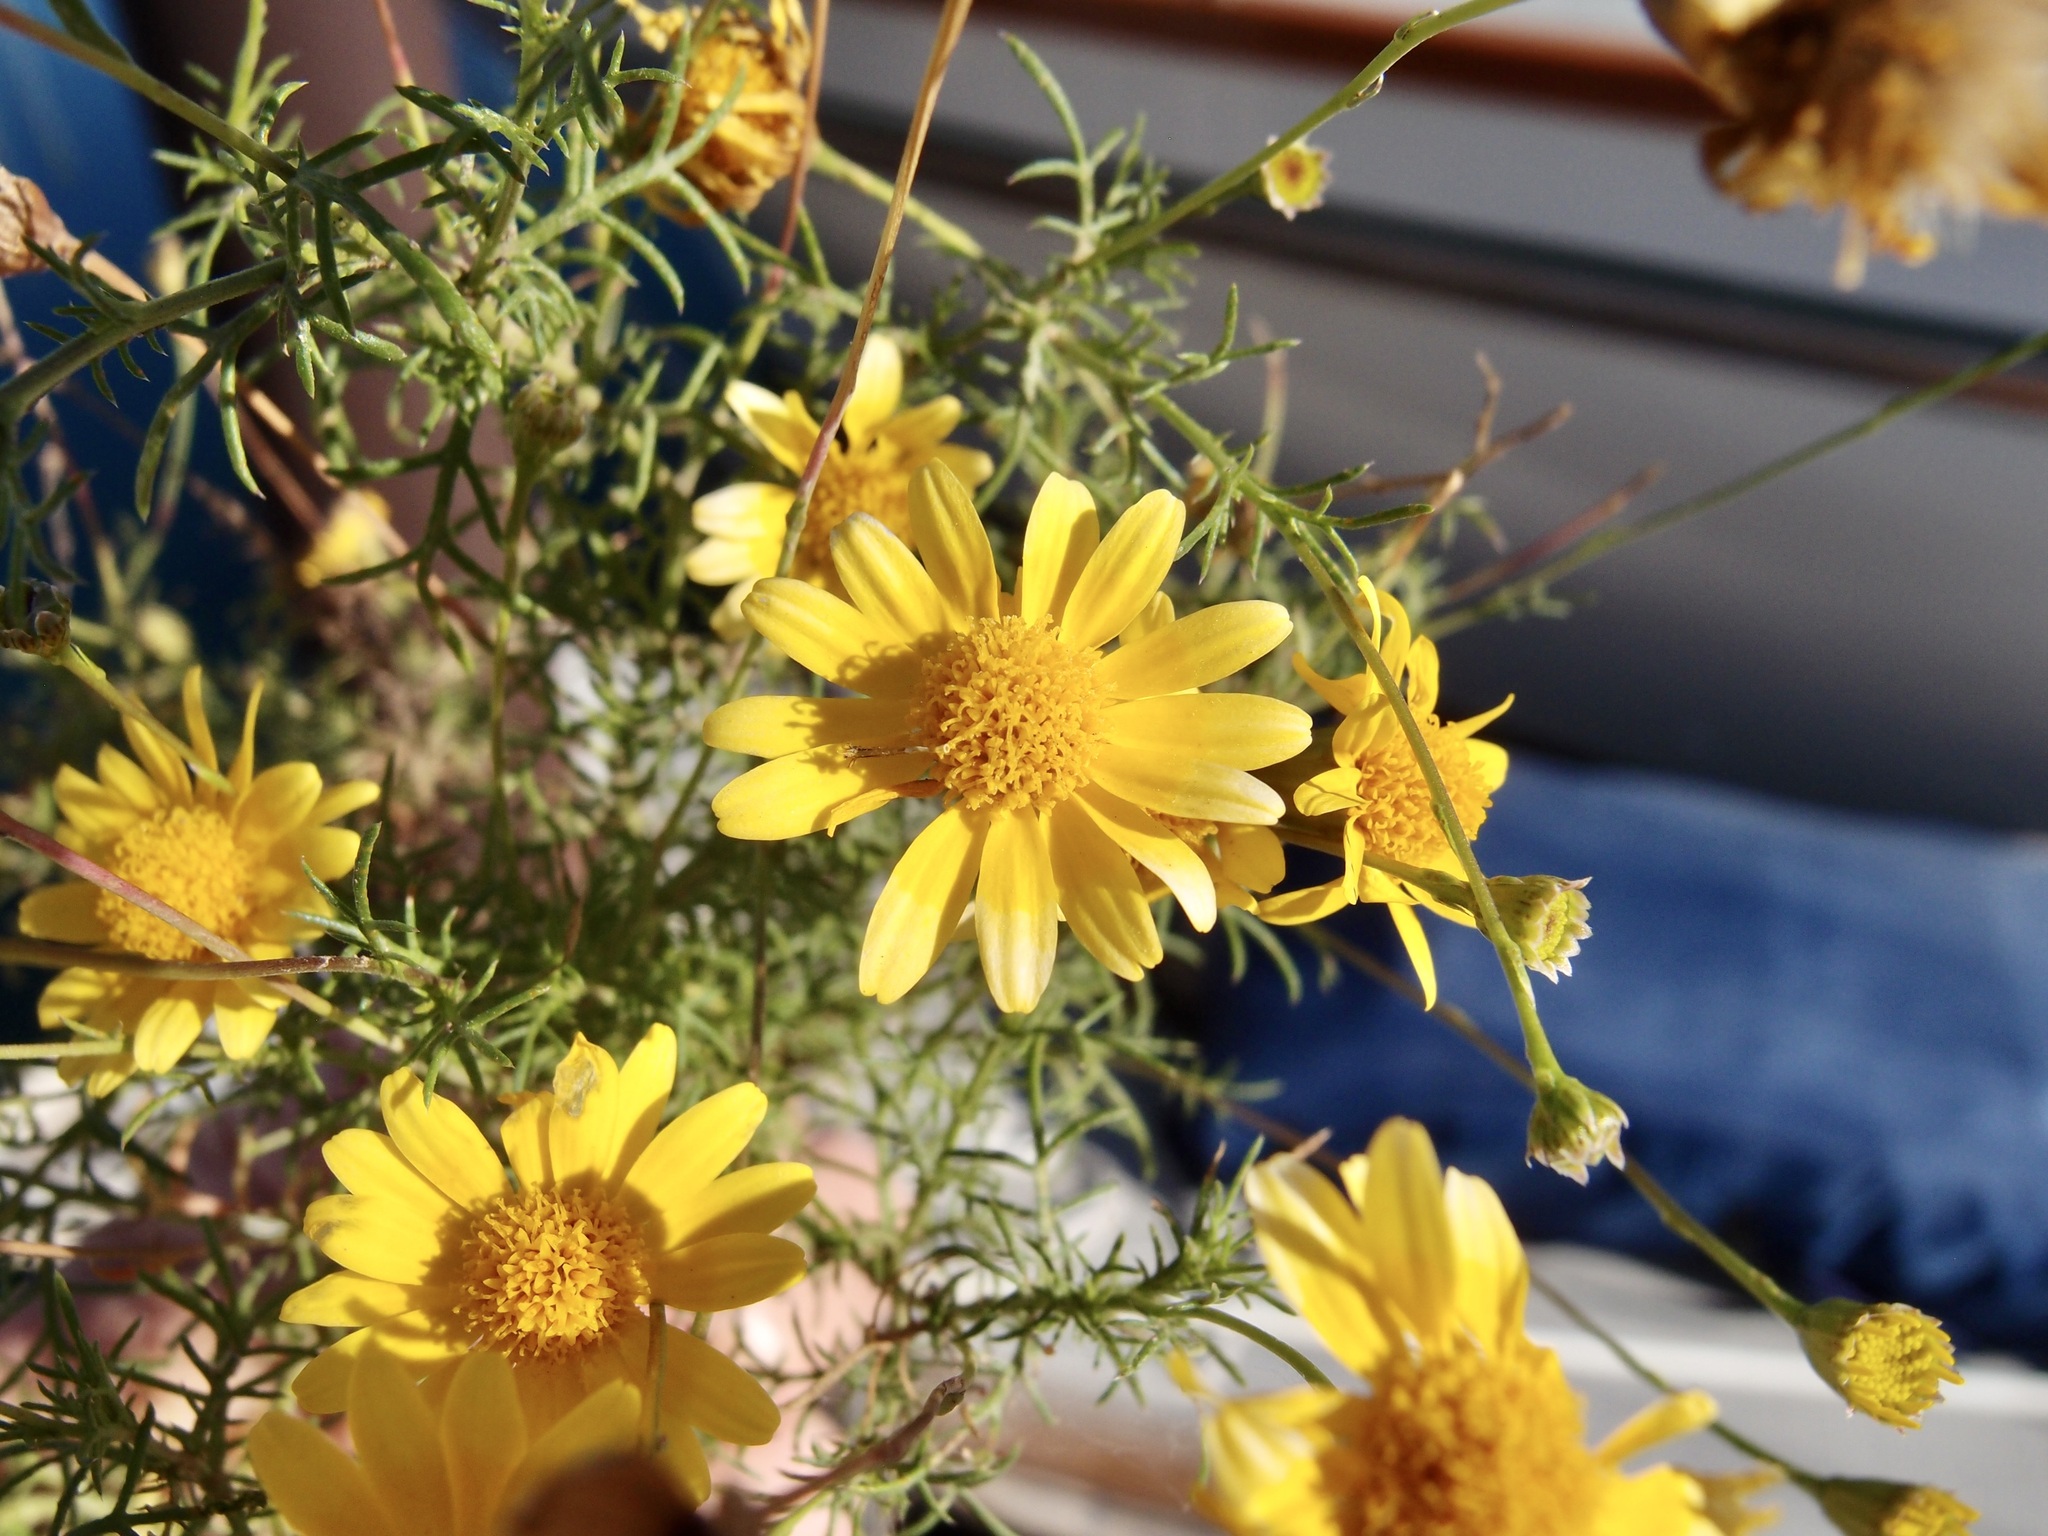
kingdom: Plantae
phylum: Tracheophyta
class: Magnoliopsida
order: Asterales
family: Asteraceae
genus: Thymophylla
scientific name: Thymophylla tenuiloba
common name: Dahlberg's daisy
